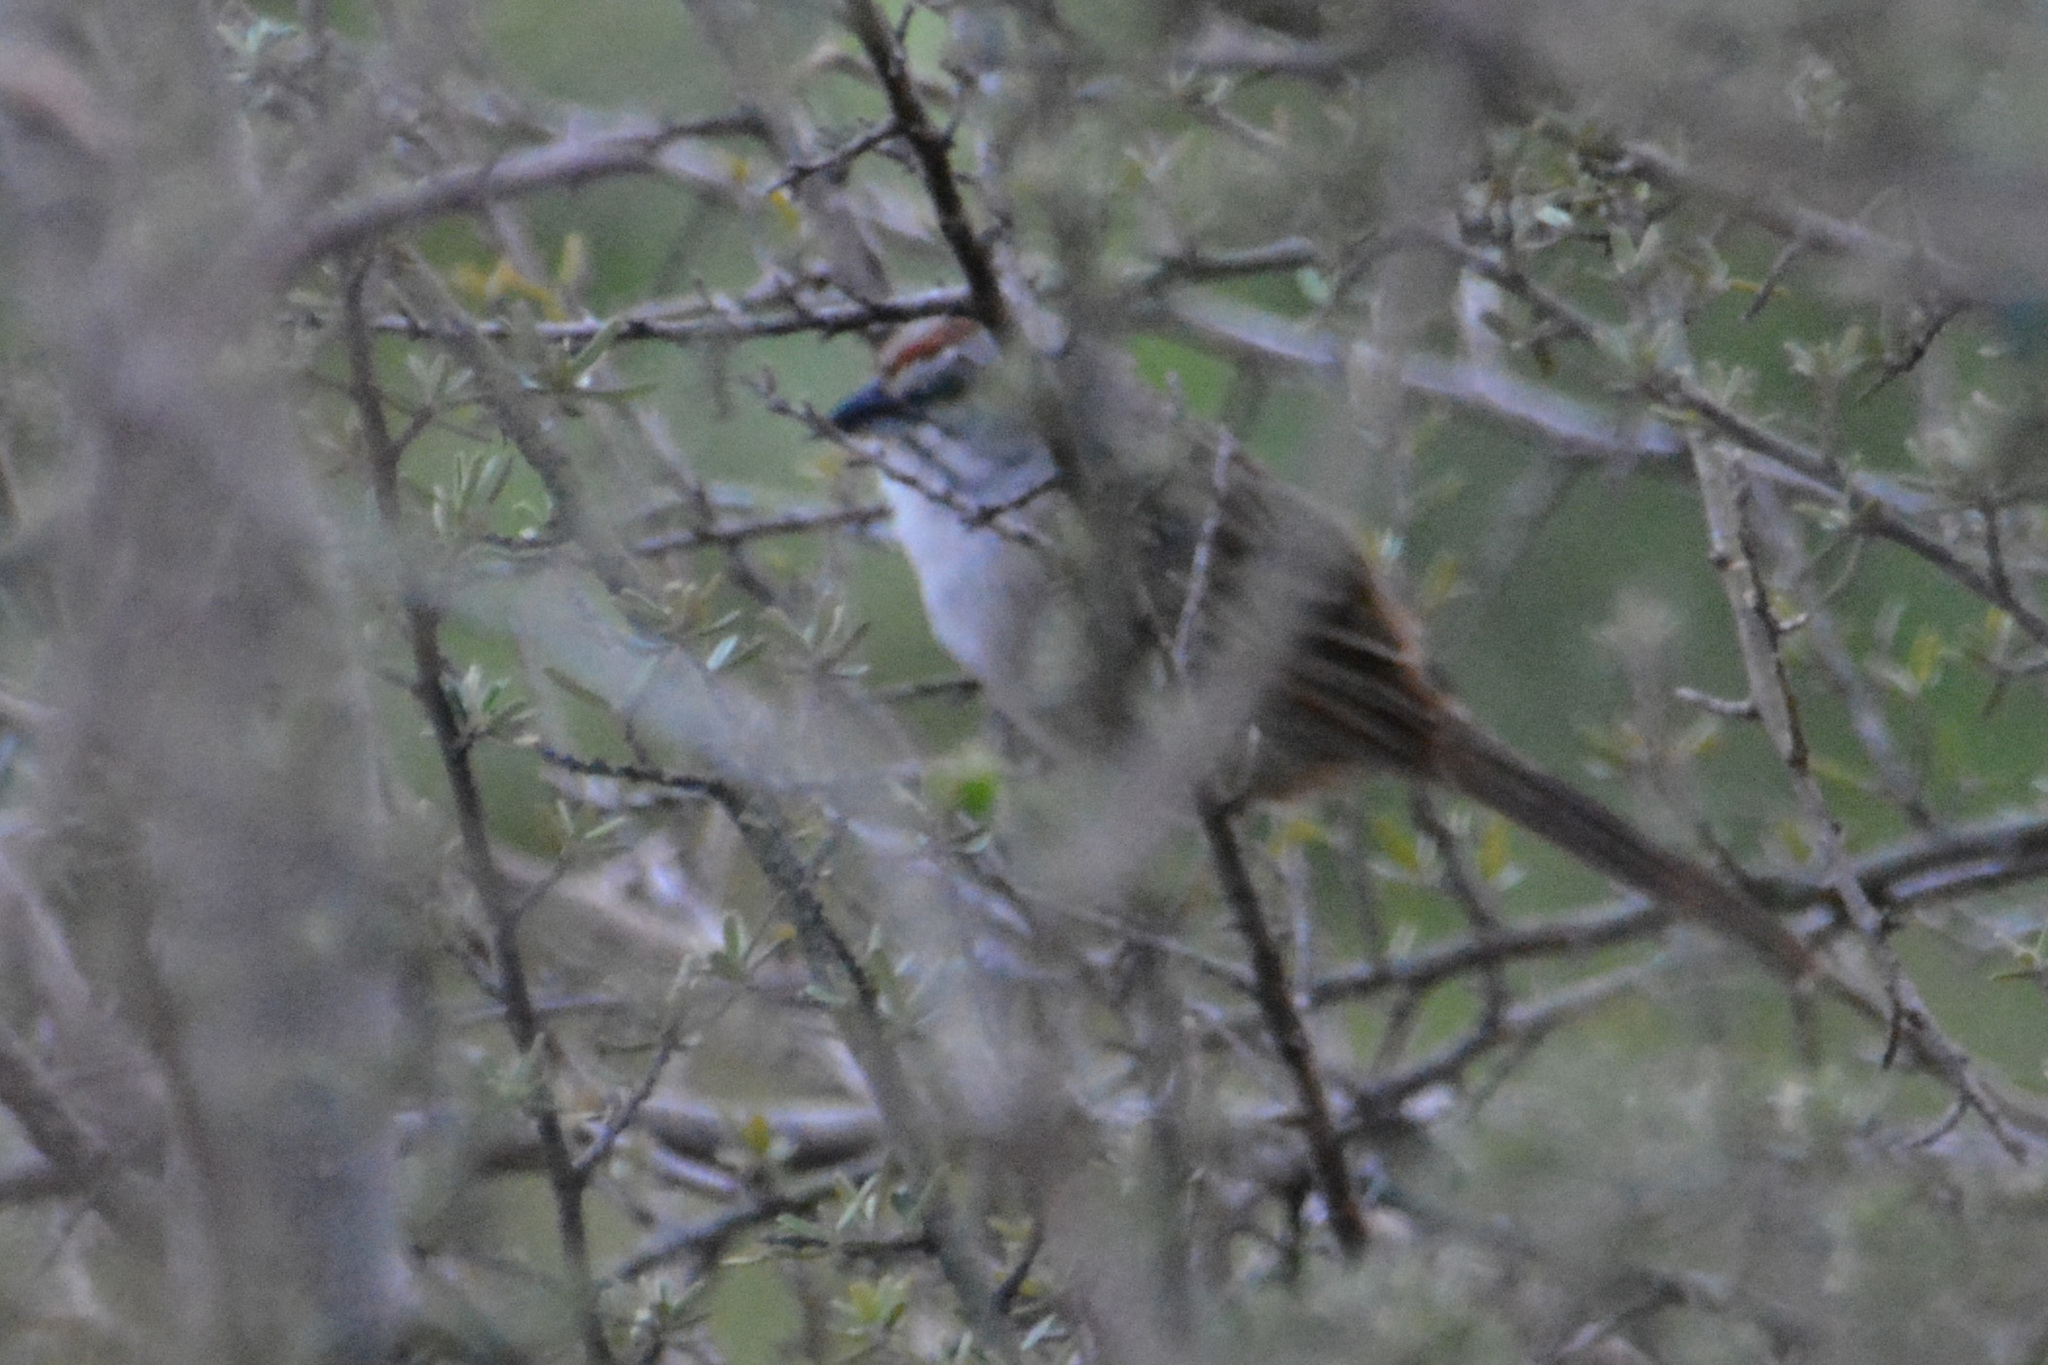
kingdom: Animalia
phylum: Chordata
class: Aves
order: Passeriformes
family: Passerellidae
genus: Rhynchospiza
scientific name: Rhynchospiza strigiceps
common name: Stripe-capped sparrow
